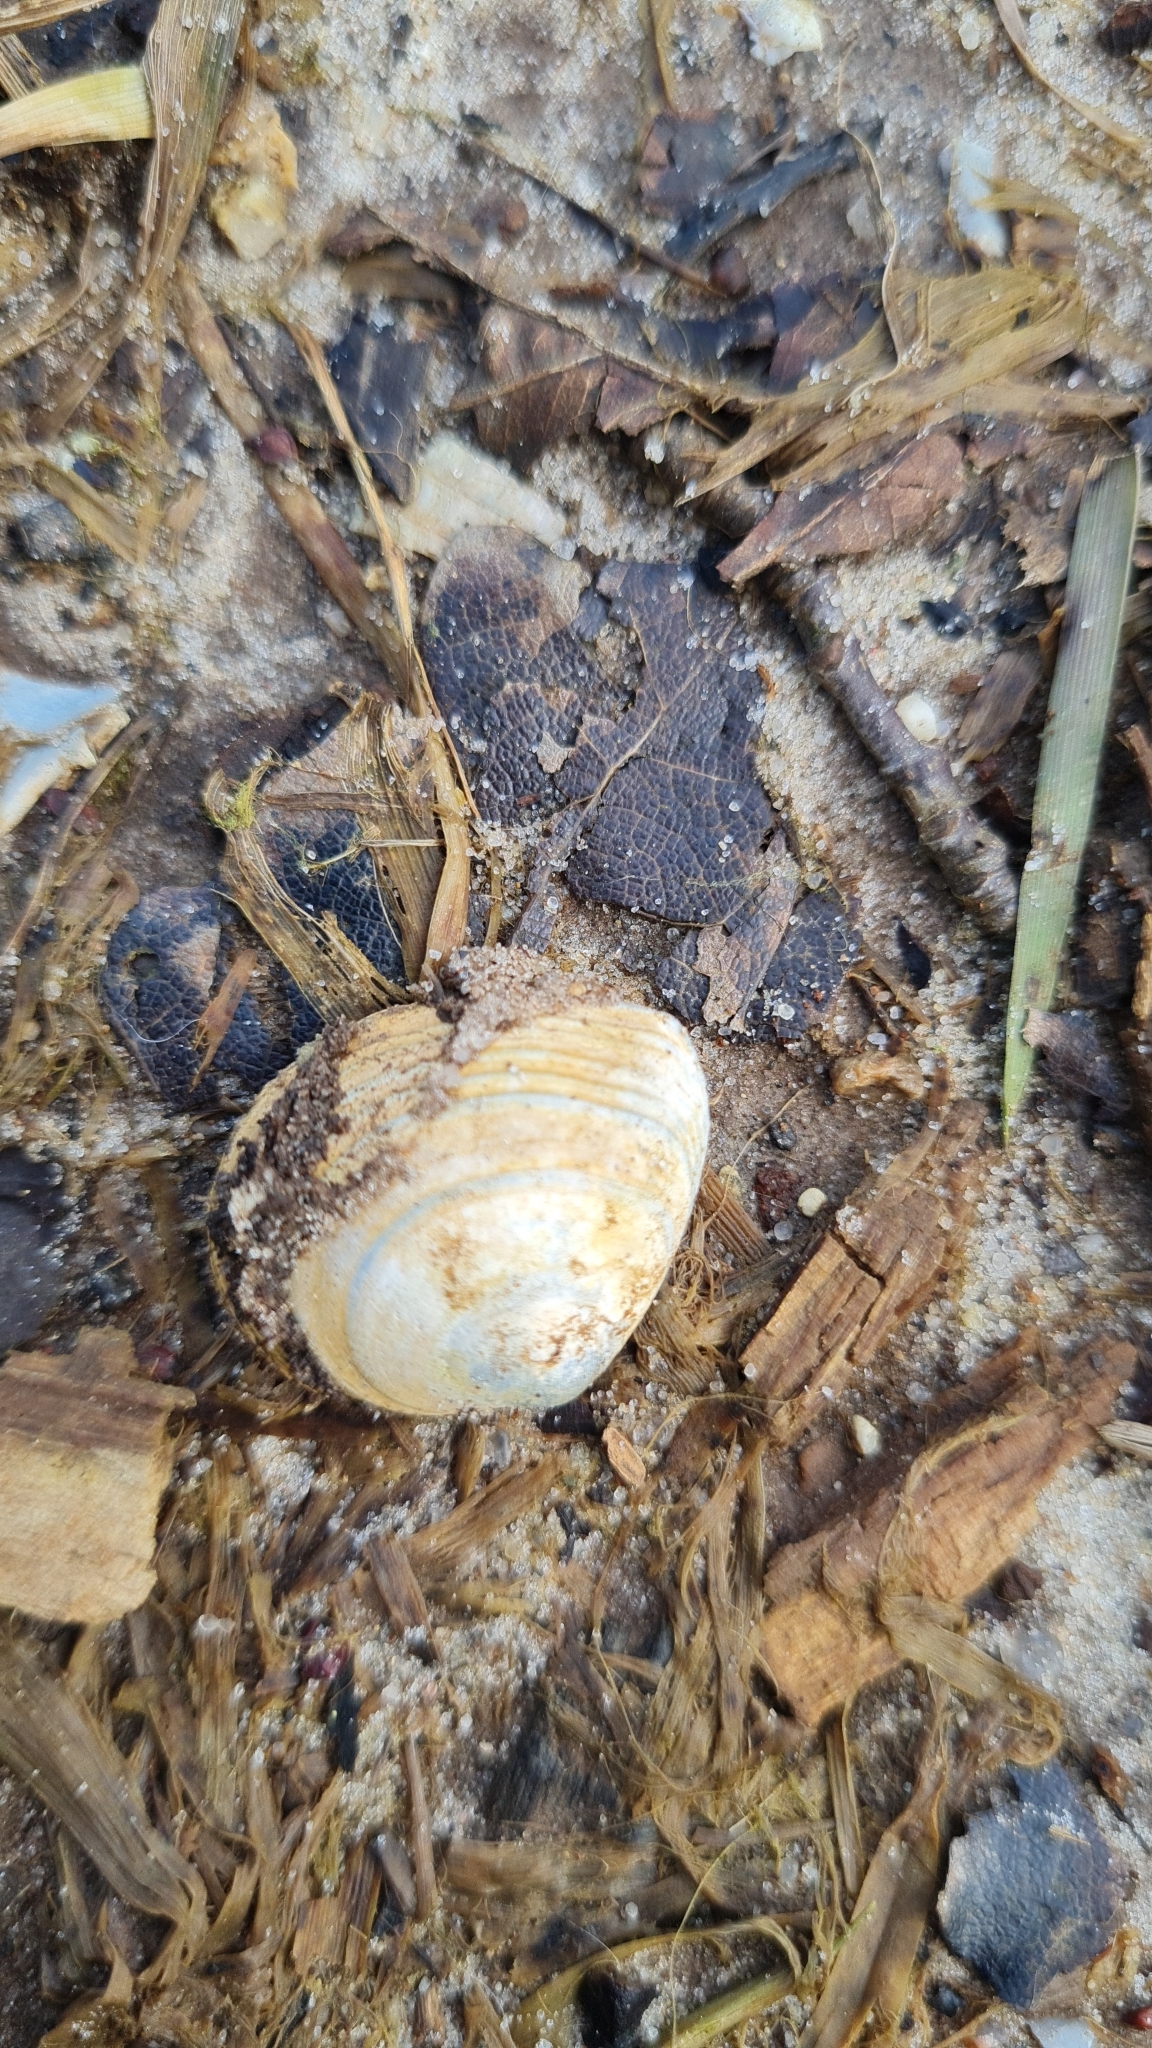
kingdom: Animalia
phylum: Mollusca
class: Bivalvia
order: Cardiida
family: Tellinidae
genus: Macoma
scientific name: Macoma balthica
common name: Baltic tellin
